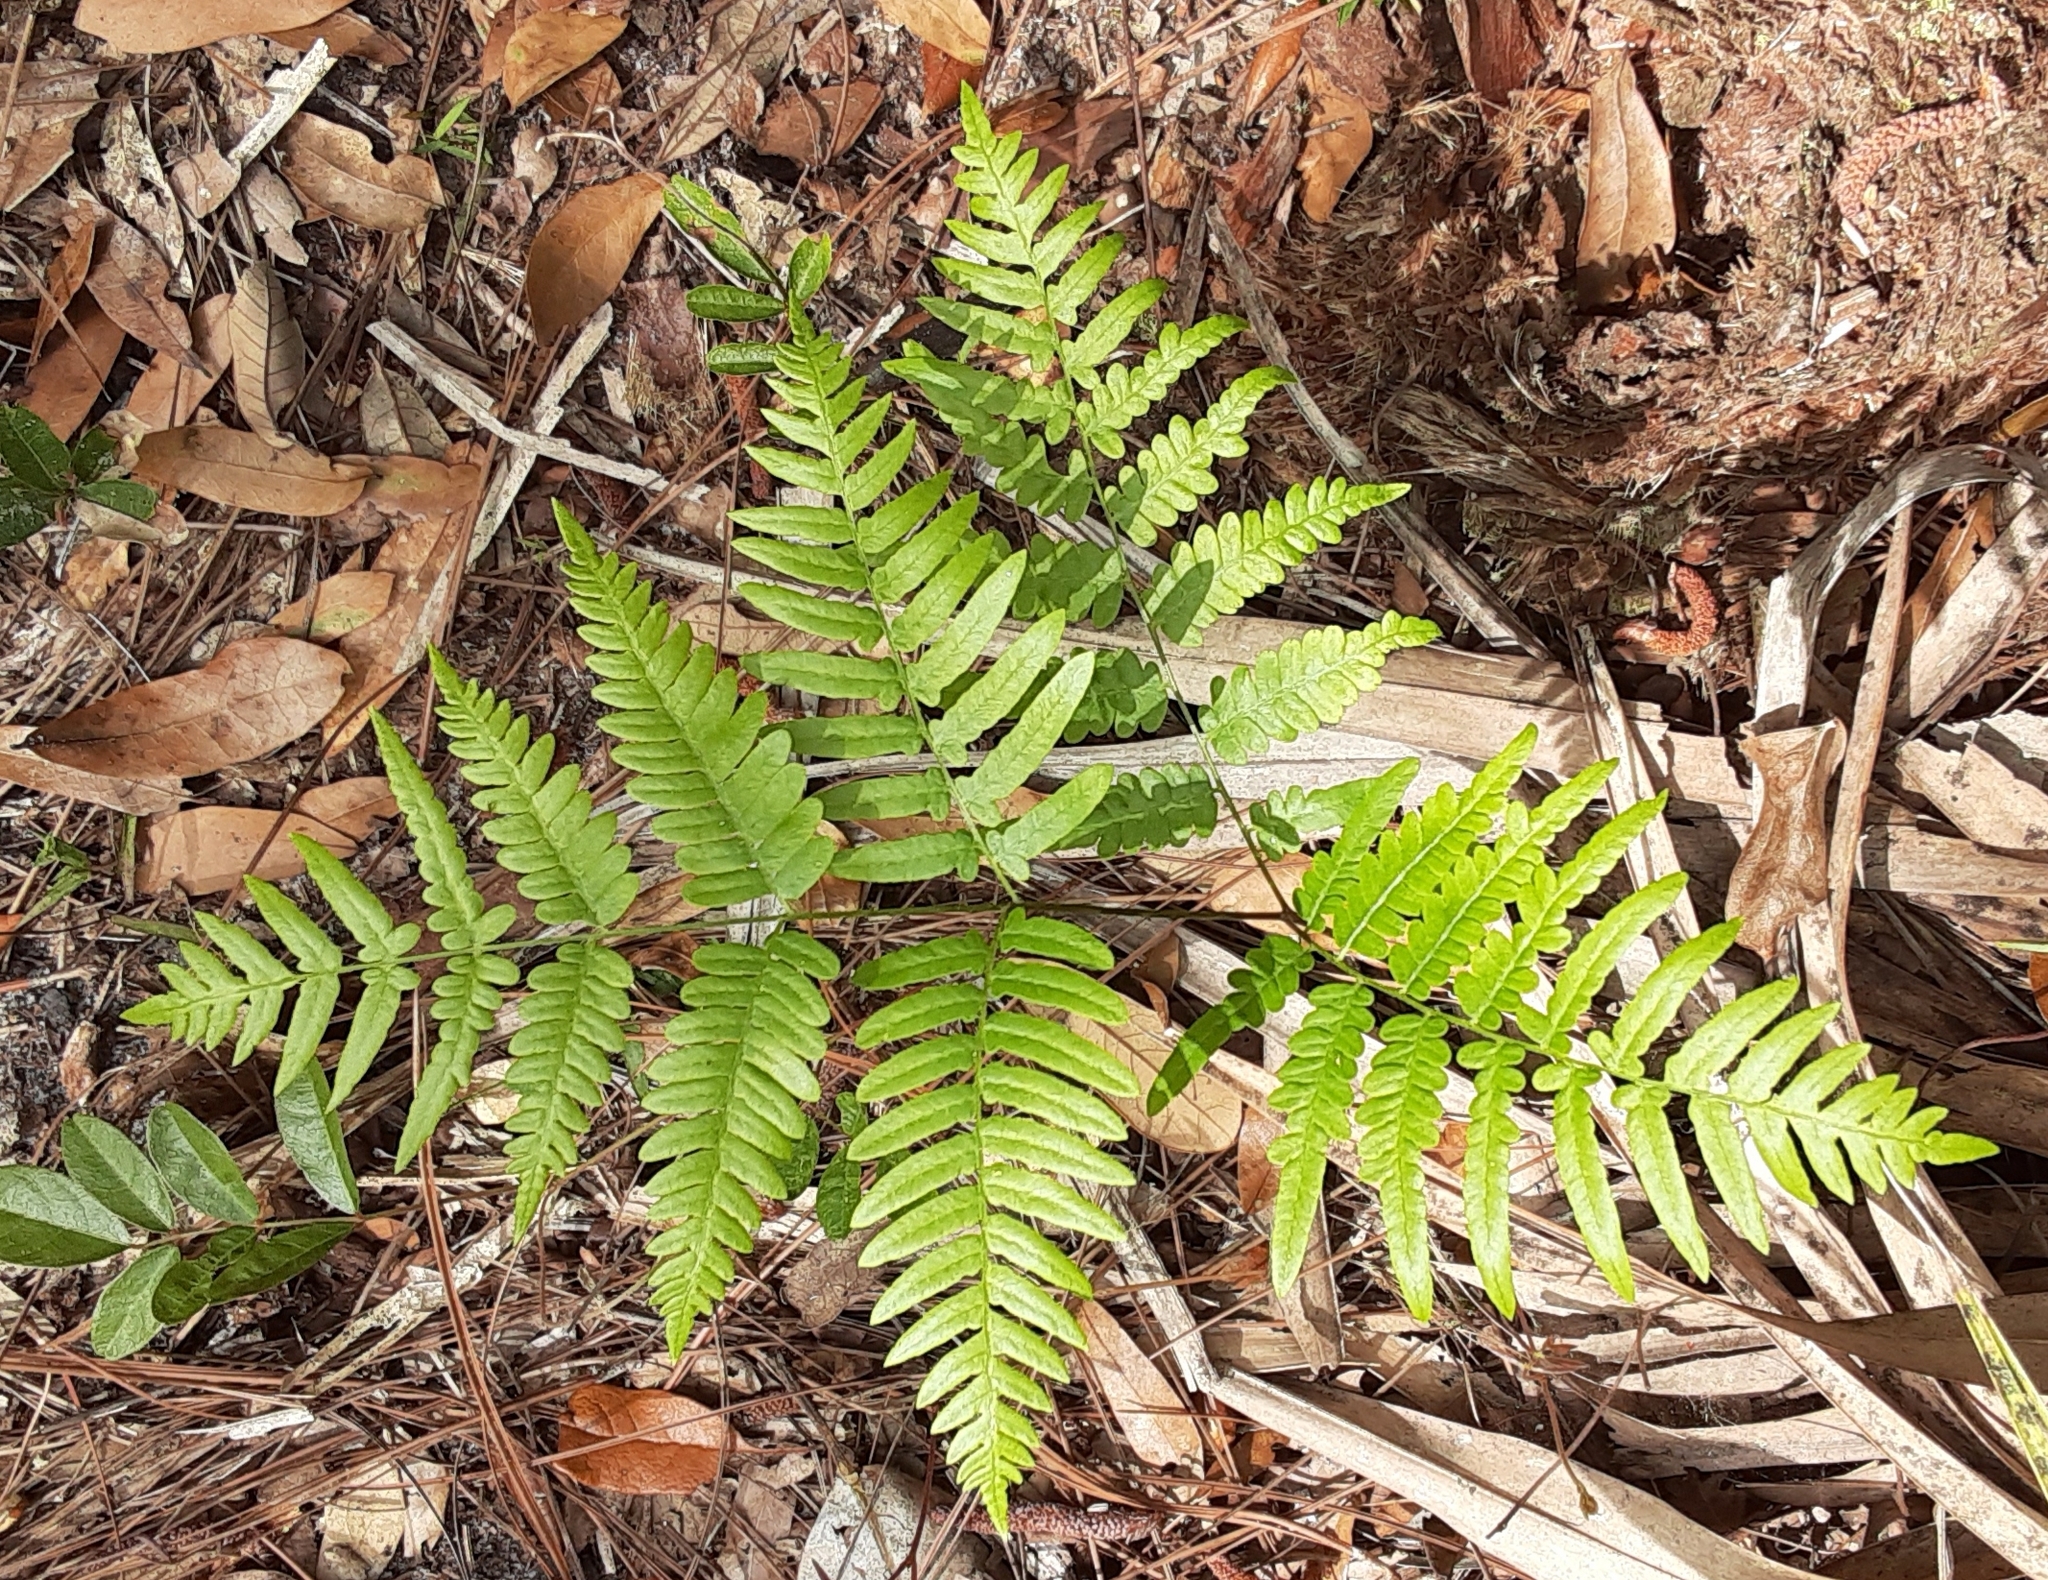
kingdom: Plantae
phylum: Tracheophyta
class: Polypodiopsida
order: Polypodiales
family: Dennstaedtiaceae
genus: Pteridium
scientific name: Pteridium aquilinum
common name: Bracken
